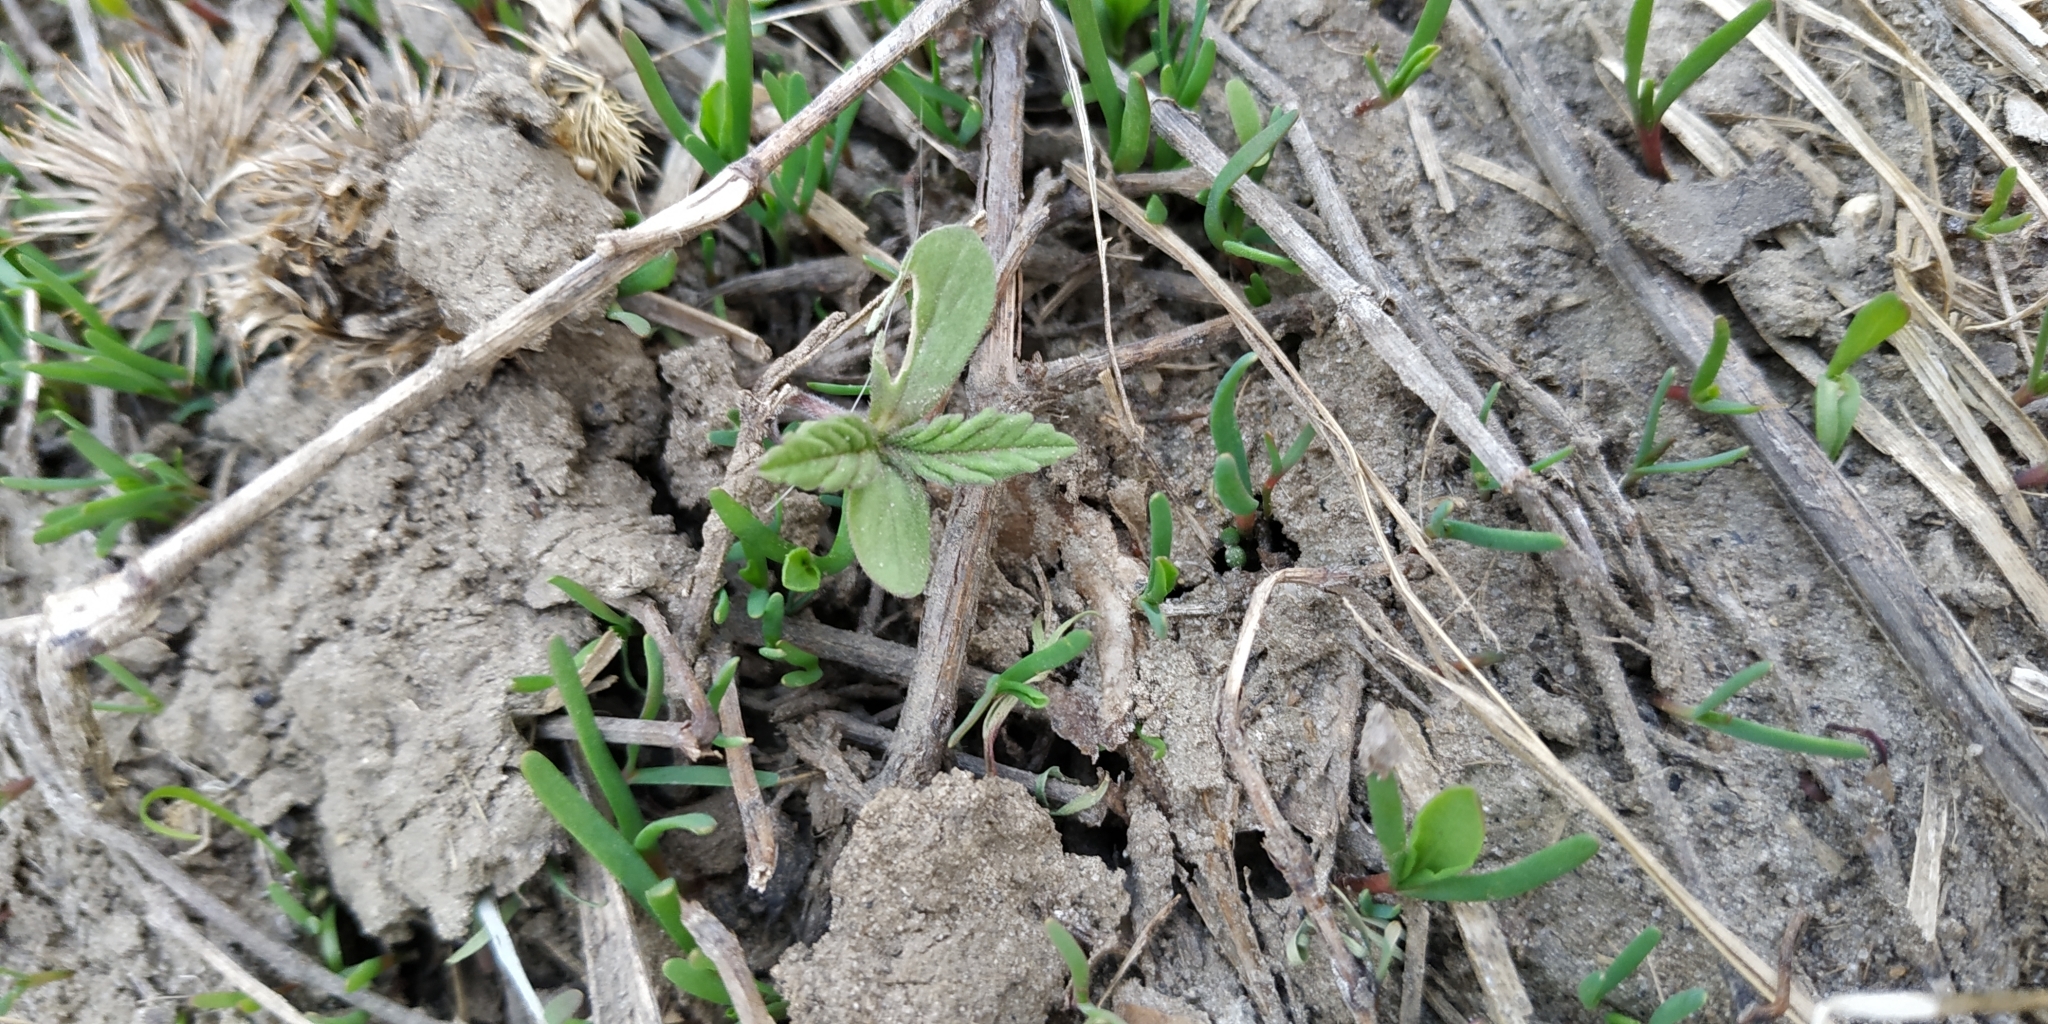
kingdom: Plantae
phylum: Tracheophyta
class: Magnoliopsida
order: Caryophyllales
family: Amaranthaceae
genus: Amaranthus
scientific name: Amaranthus retroflexus
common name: Redroot amaranth
